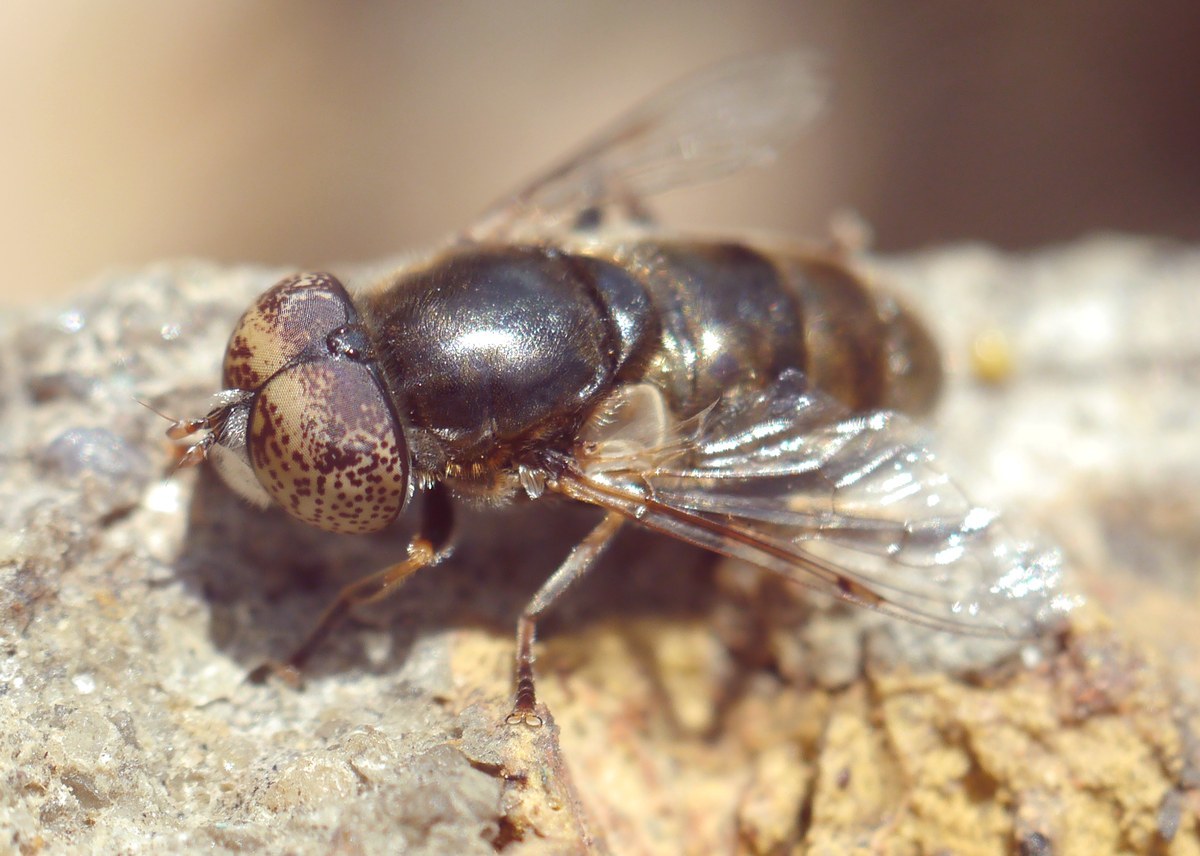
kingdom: Animalia
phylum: Arthropoda
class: Insecta
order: Diptera
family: Syrphidae
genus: Eristalinus
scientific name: Eristalinus aeneus
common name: Syrphid fly
